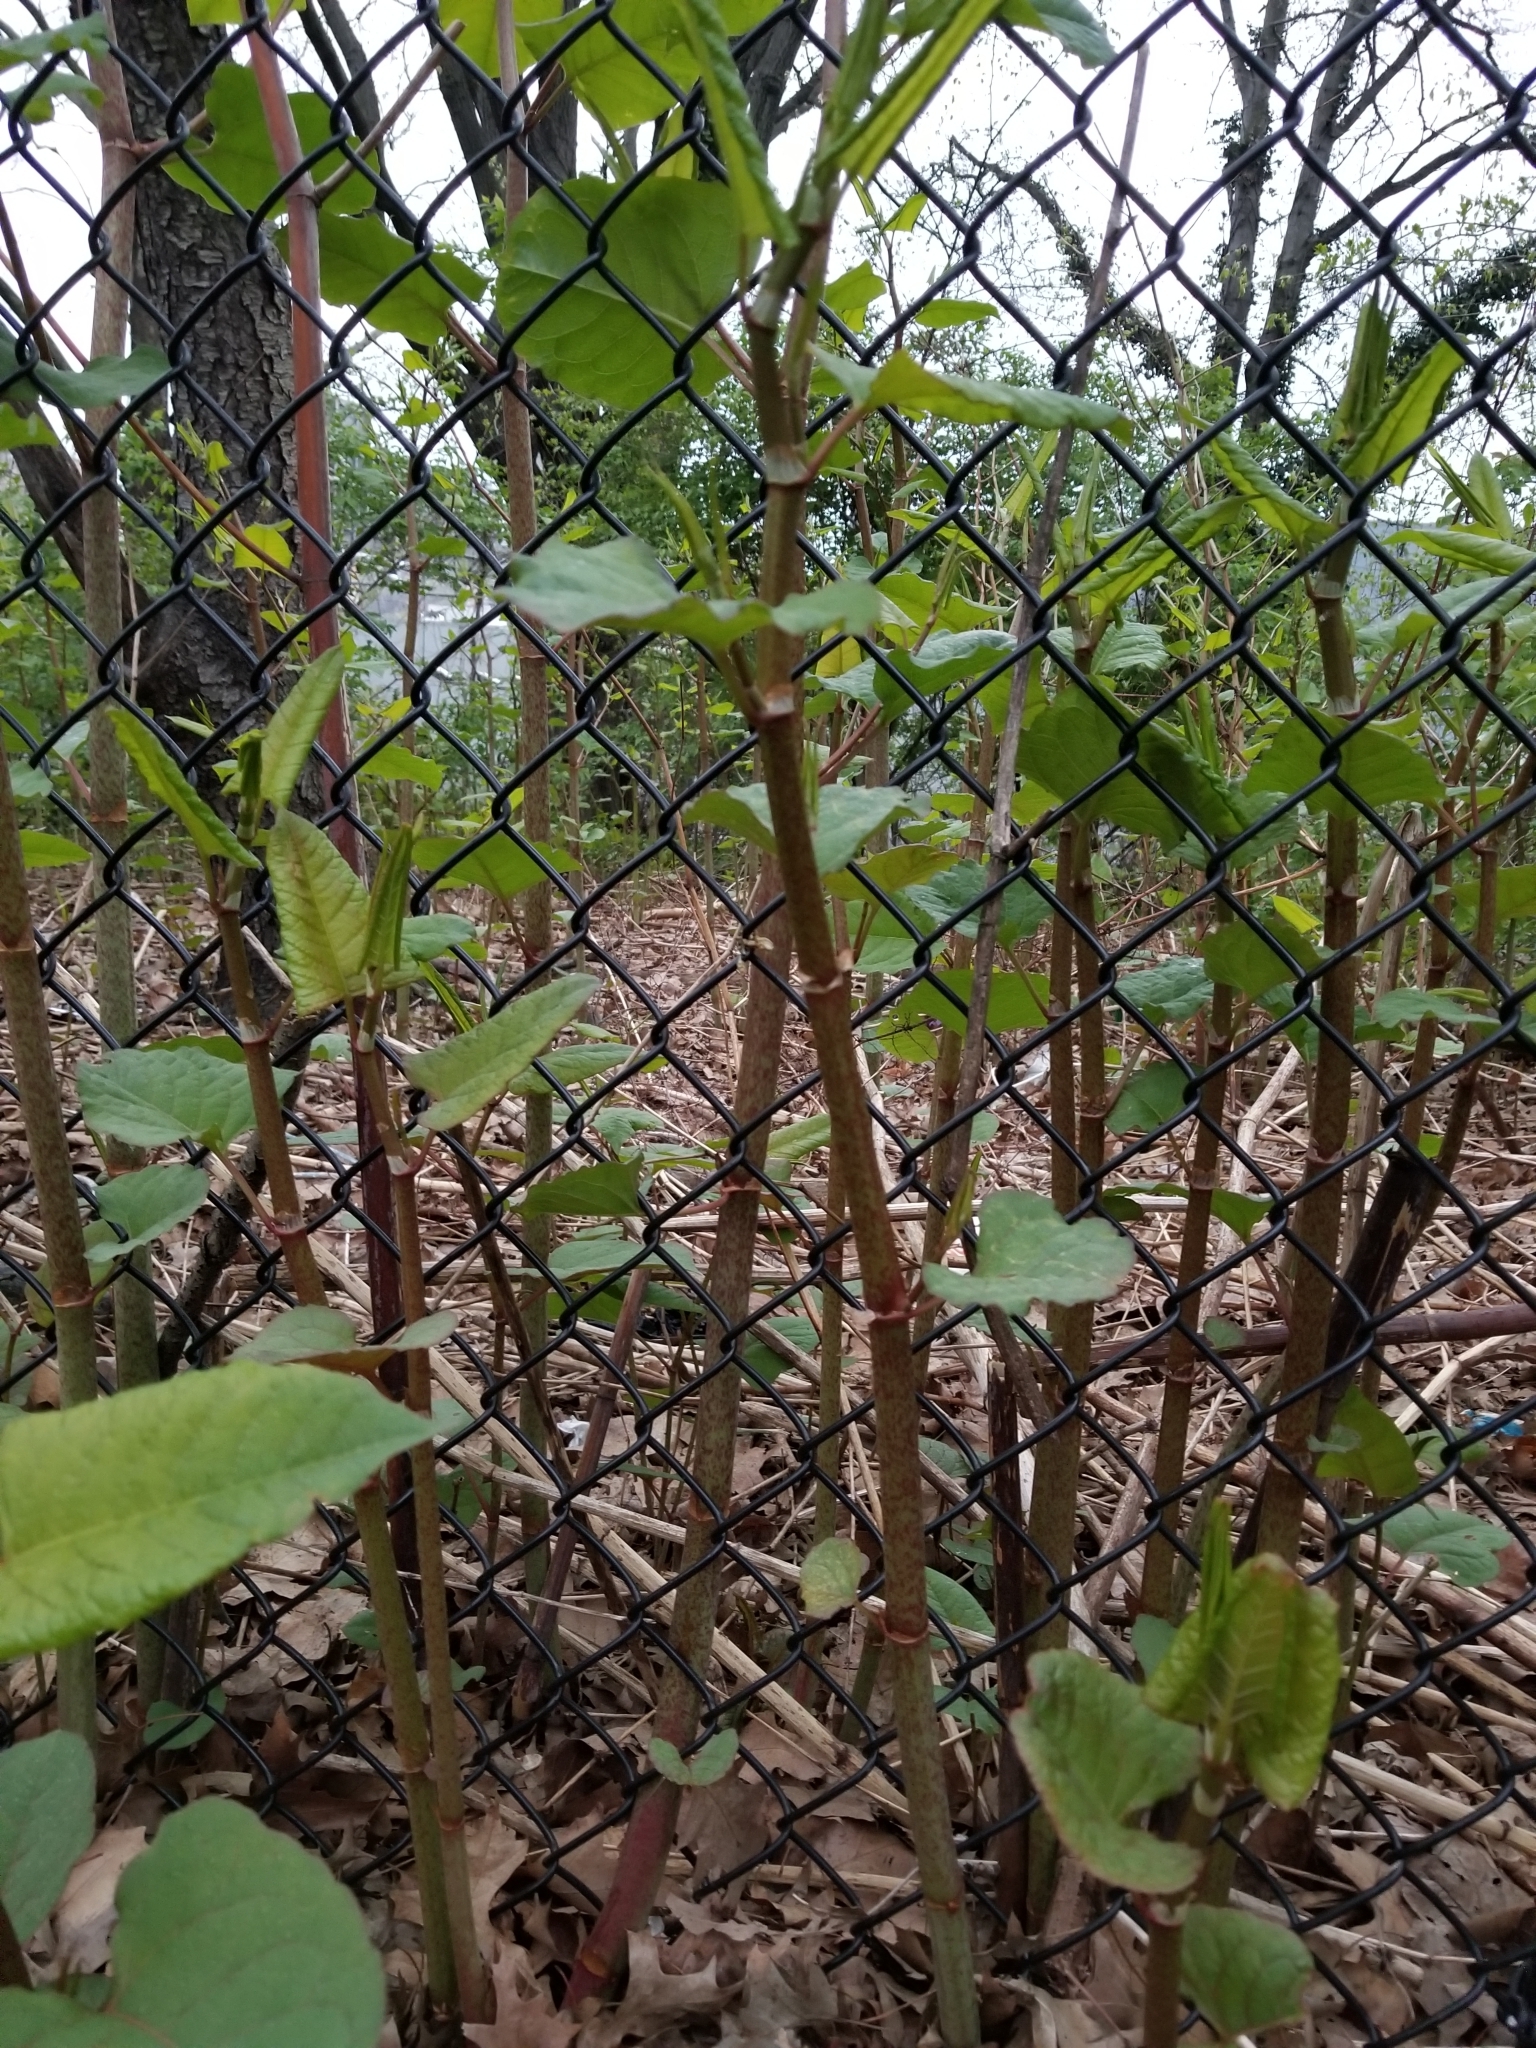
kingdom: Plantae
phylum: Tracheophyta
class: Magnoliopsida
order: Caryophyllales
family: Polygonaceae
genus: Reynoutria
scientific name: Reynoutria japonica
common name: Japanese knotweed
